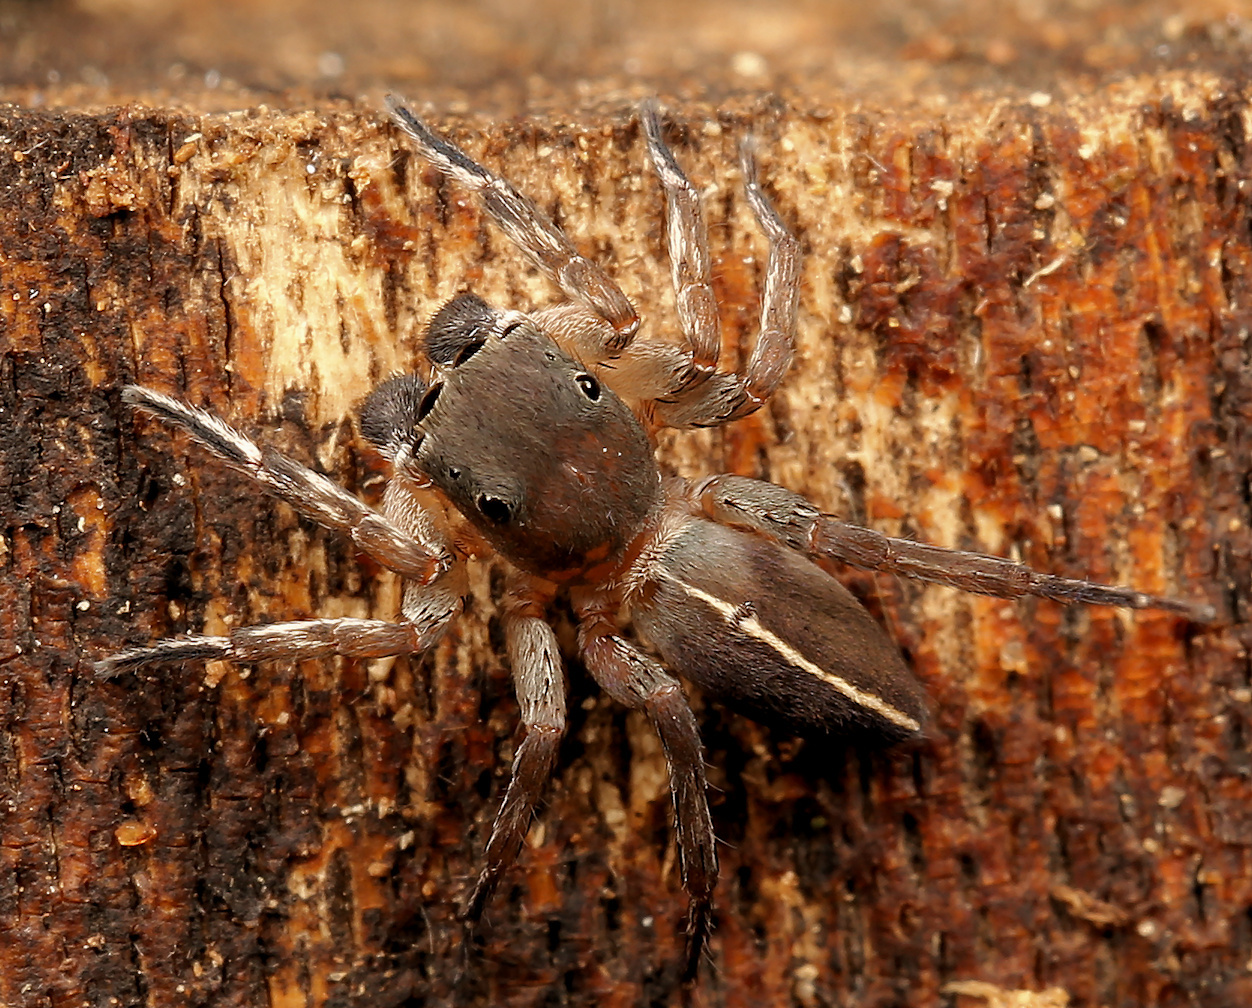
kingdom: Animalia
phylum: Arthropoda
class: Arachnida
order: Araneae
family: Salticidae
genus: Cyrba
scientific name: Cyrba lineata
